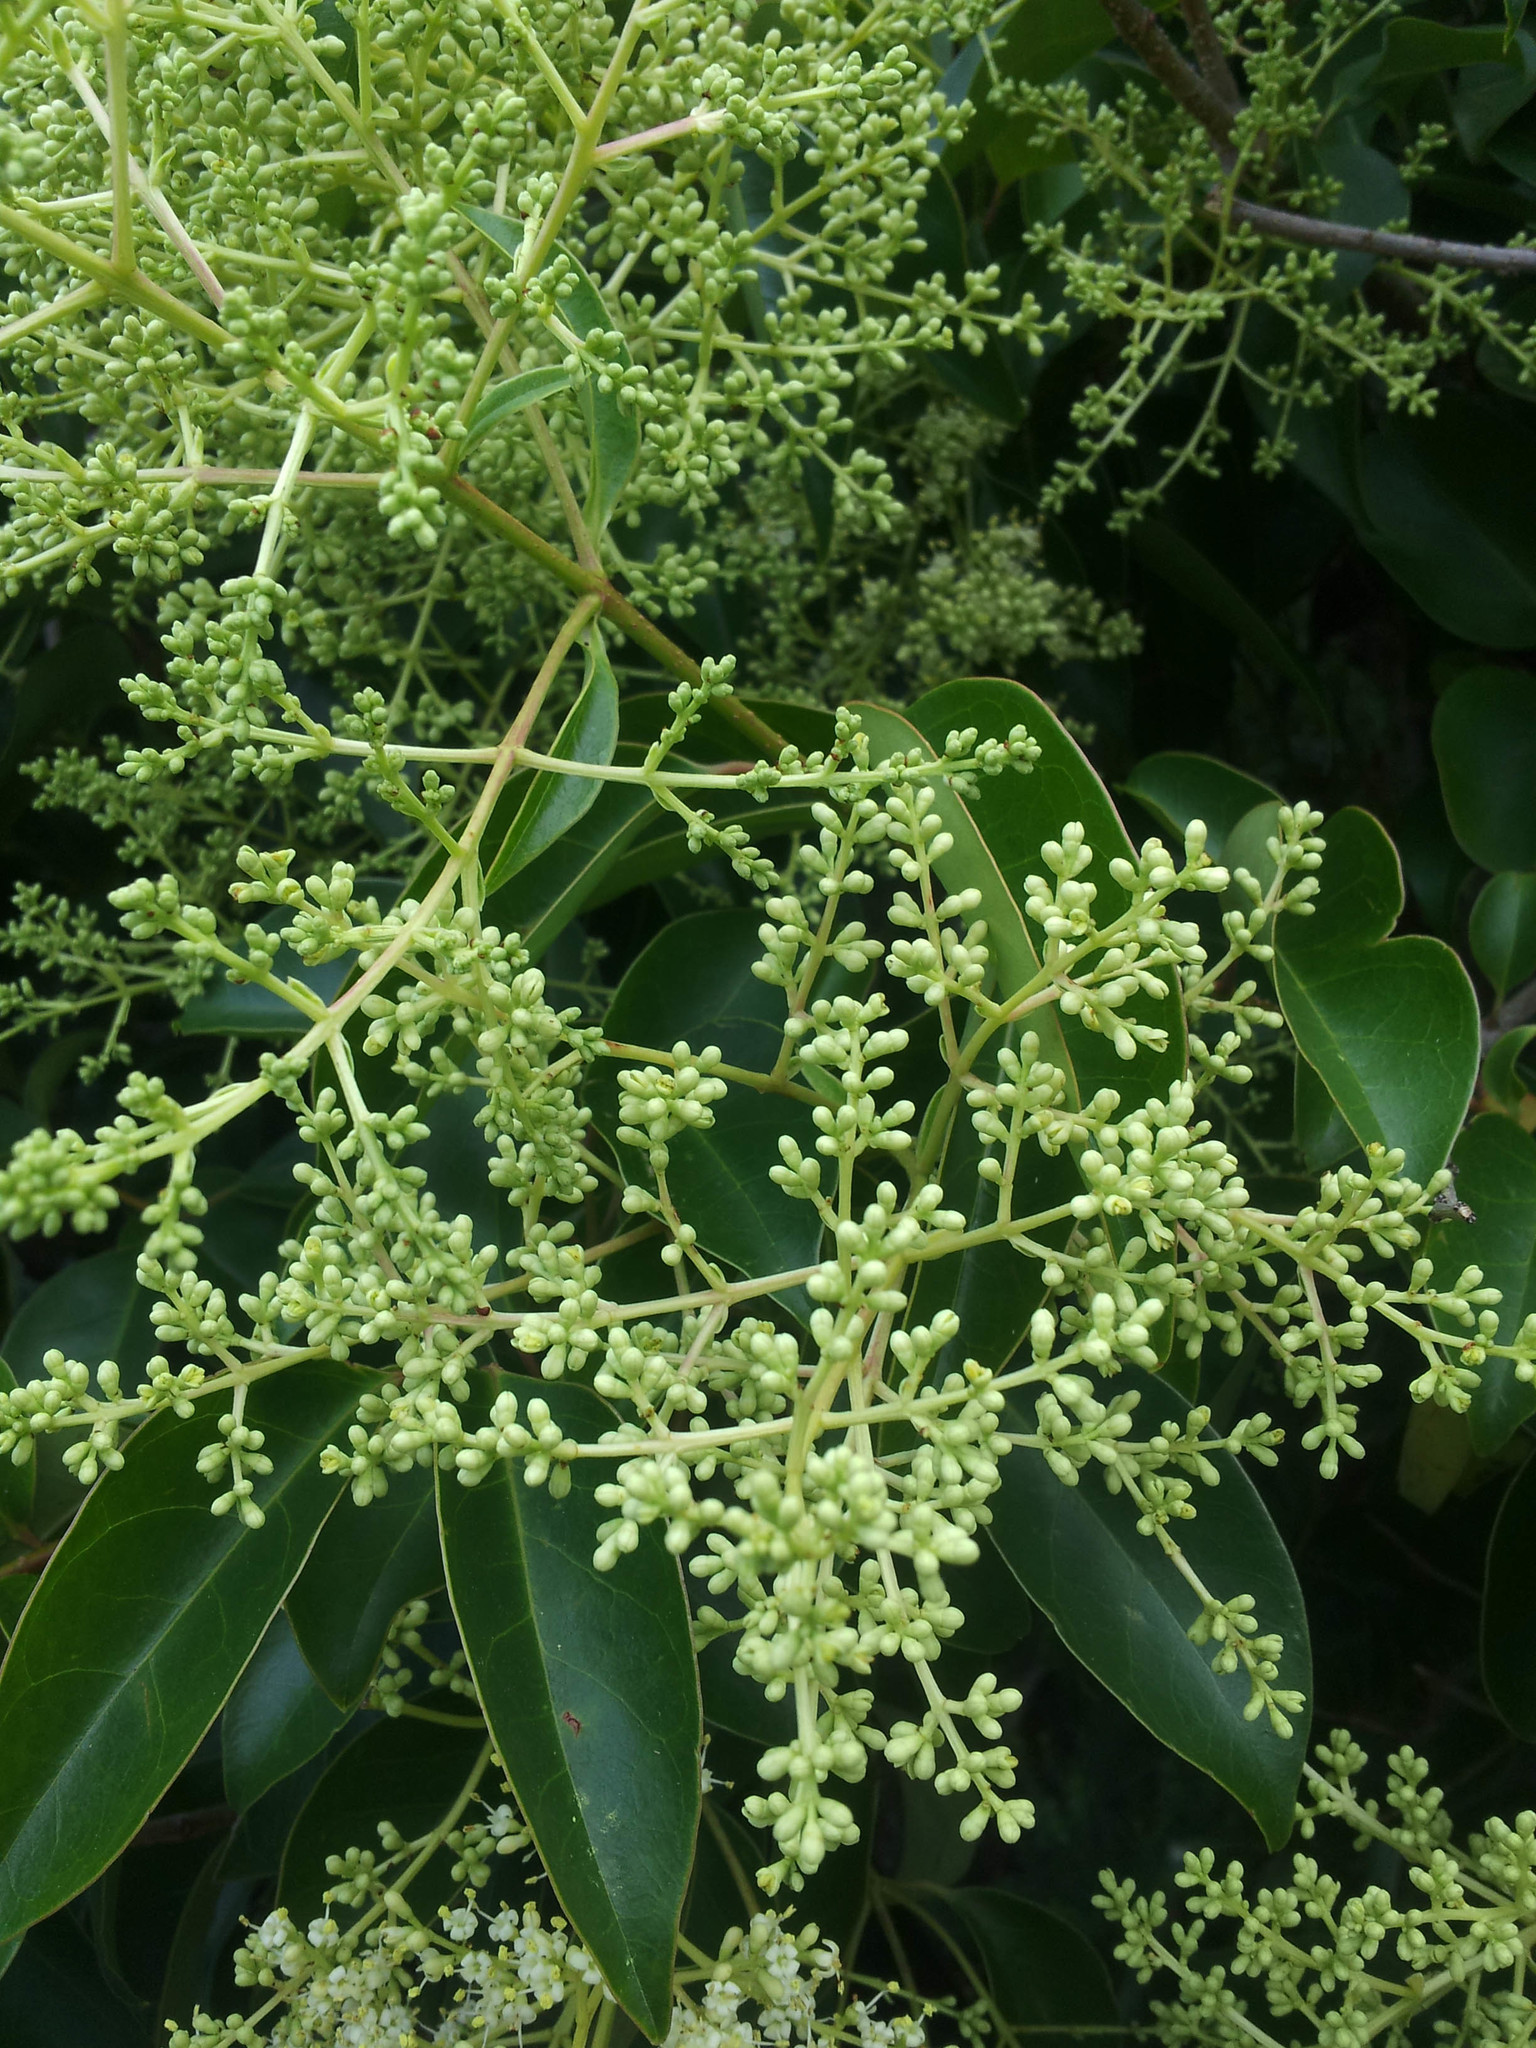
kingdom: Plantae
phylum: Tracheophyta
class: Magnoliopsida
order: Lamiales
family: Oleaceae
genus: Ligustrum
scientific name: Ligustrum lucidum
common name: Glossy privet
